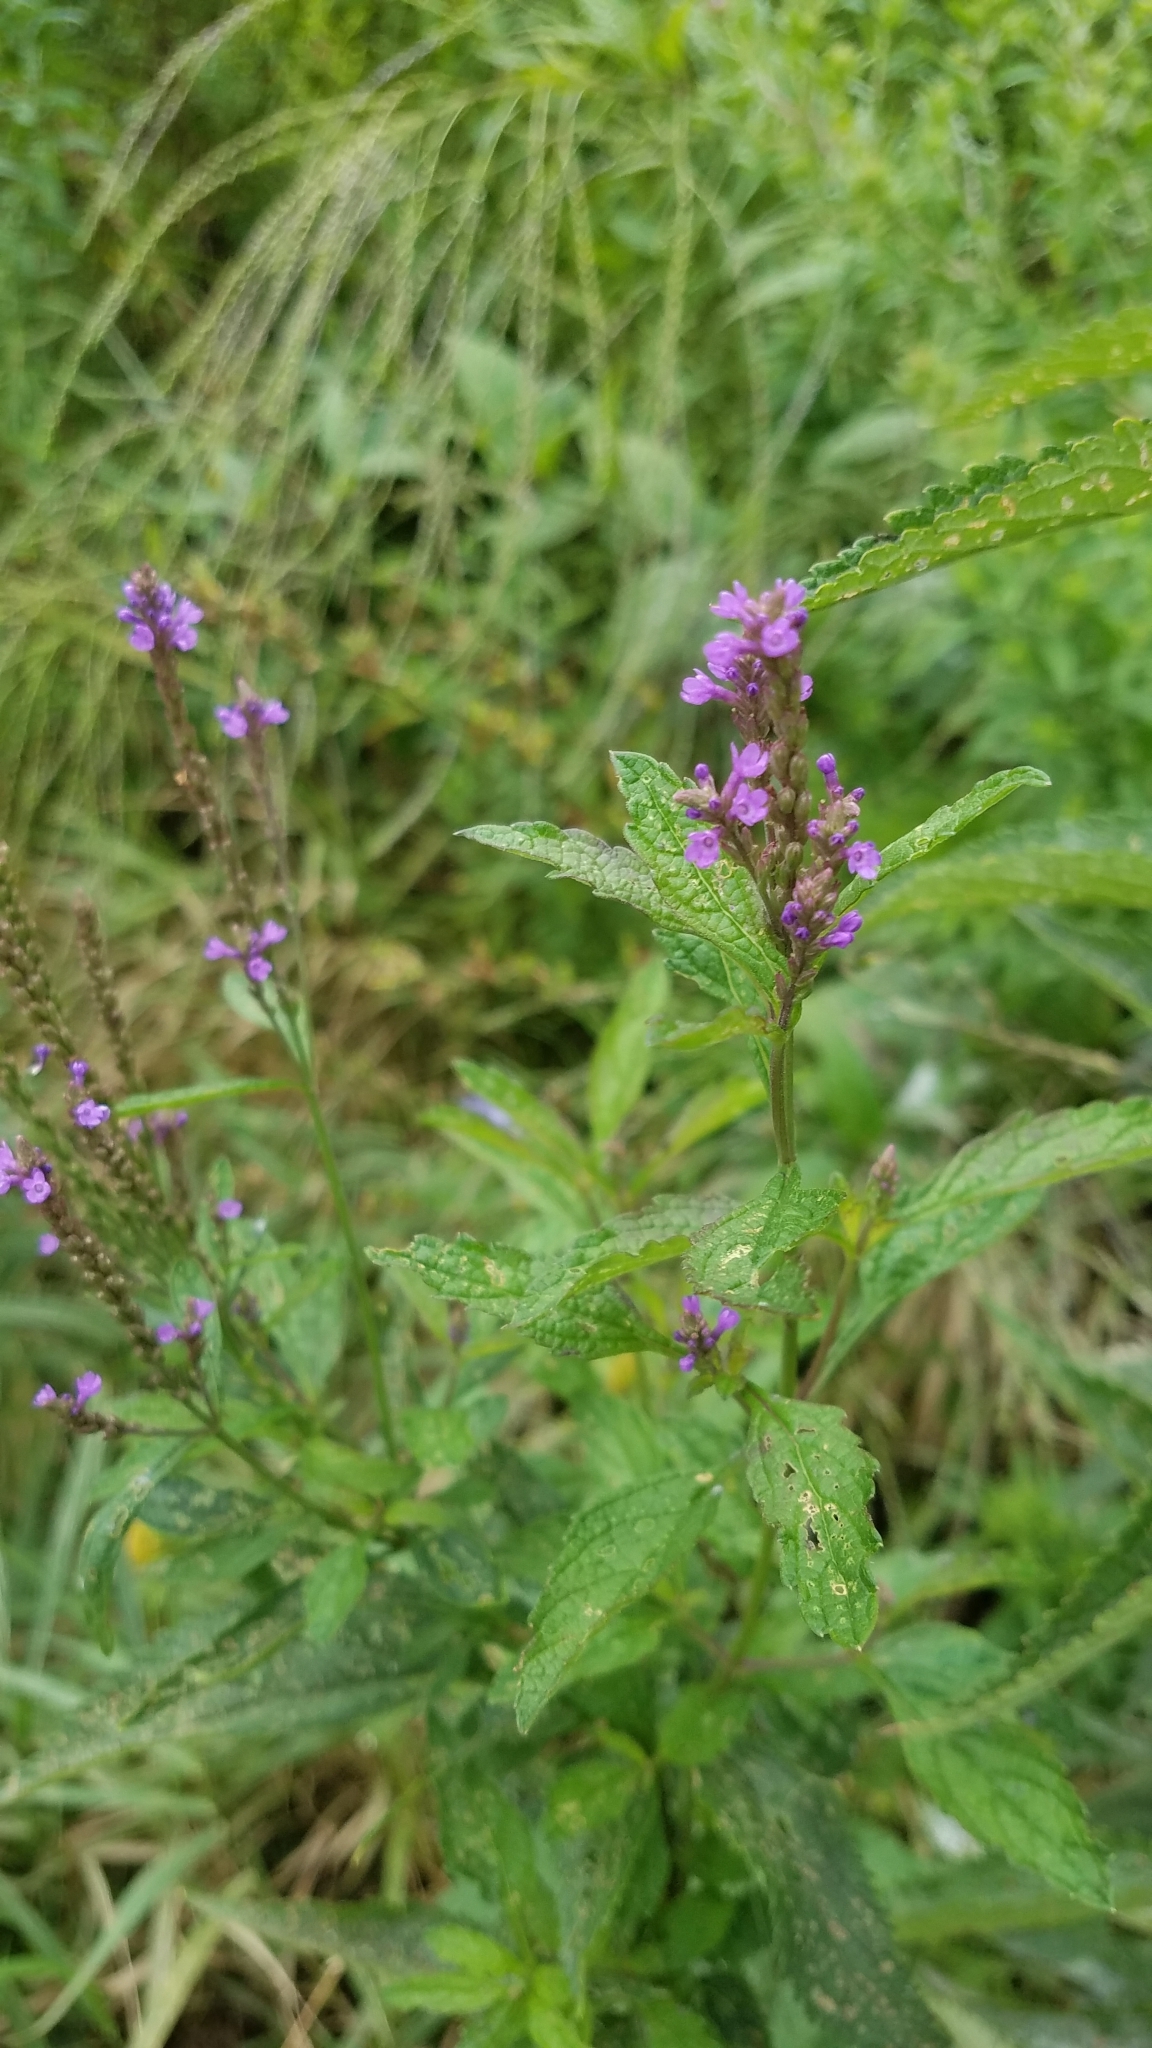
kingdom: Plantae
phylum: Tracheophyta
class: Magnoliopsida
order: Lamiales
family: Verbenaceae
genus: Verbena
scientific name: Verbena hastata
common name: American blue vervain
